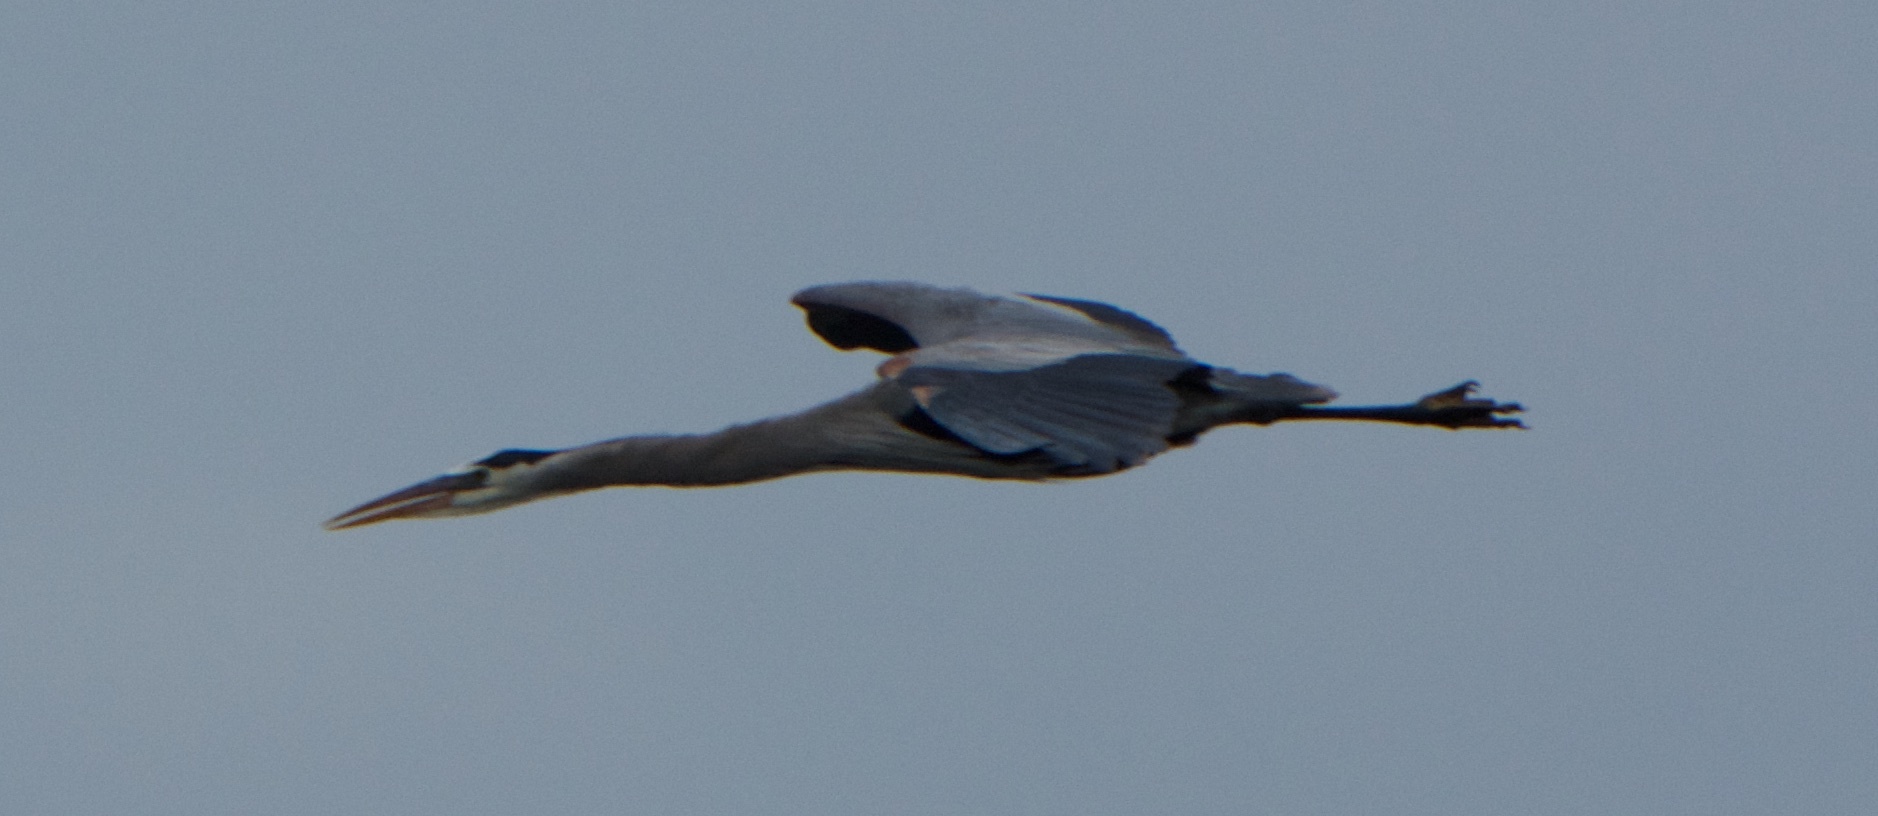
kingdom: Animalia
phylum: Chordata
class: Aves
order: Pelecaniformes
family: Ardeidae
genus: Ardea
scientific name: Ardea herodias
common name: Great blue heron
